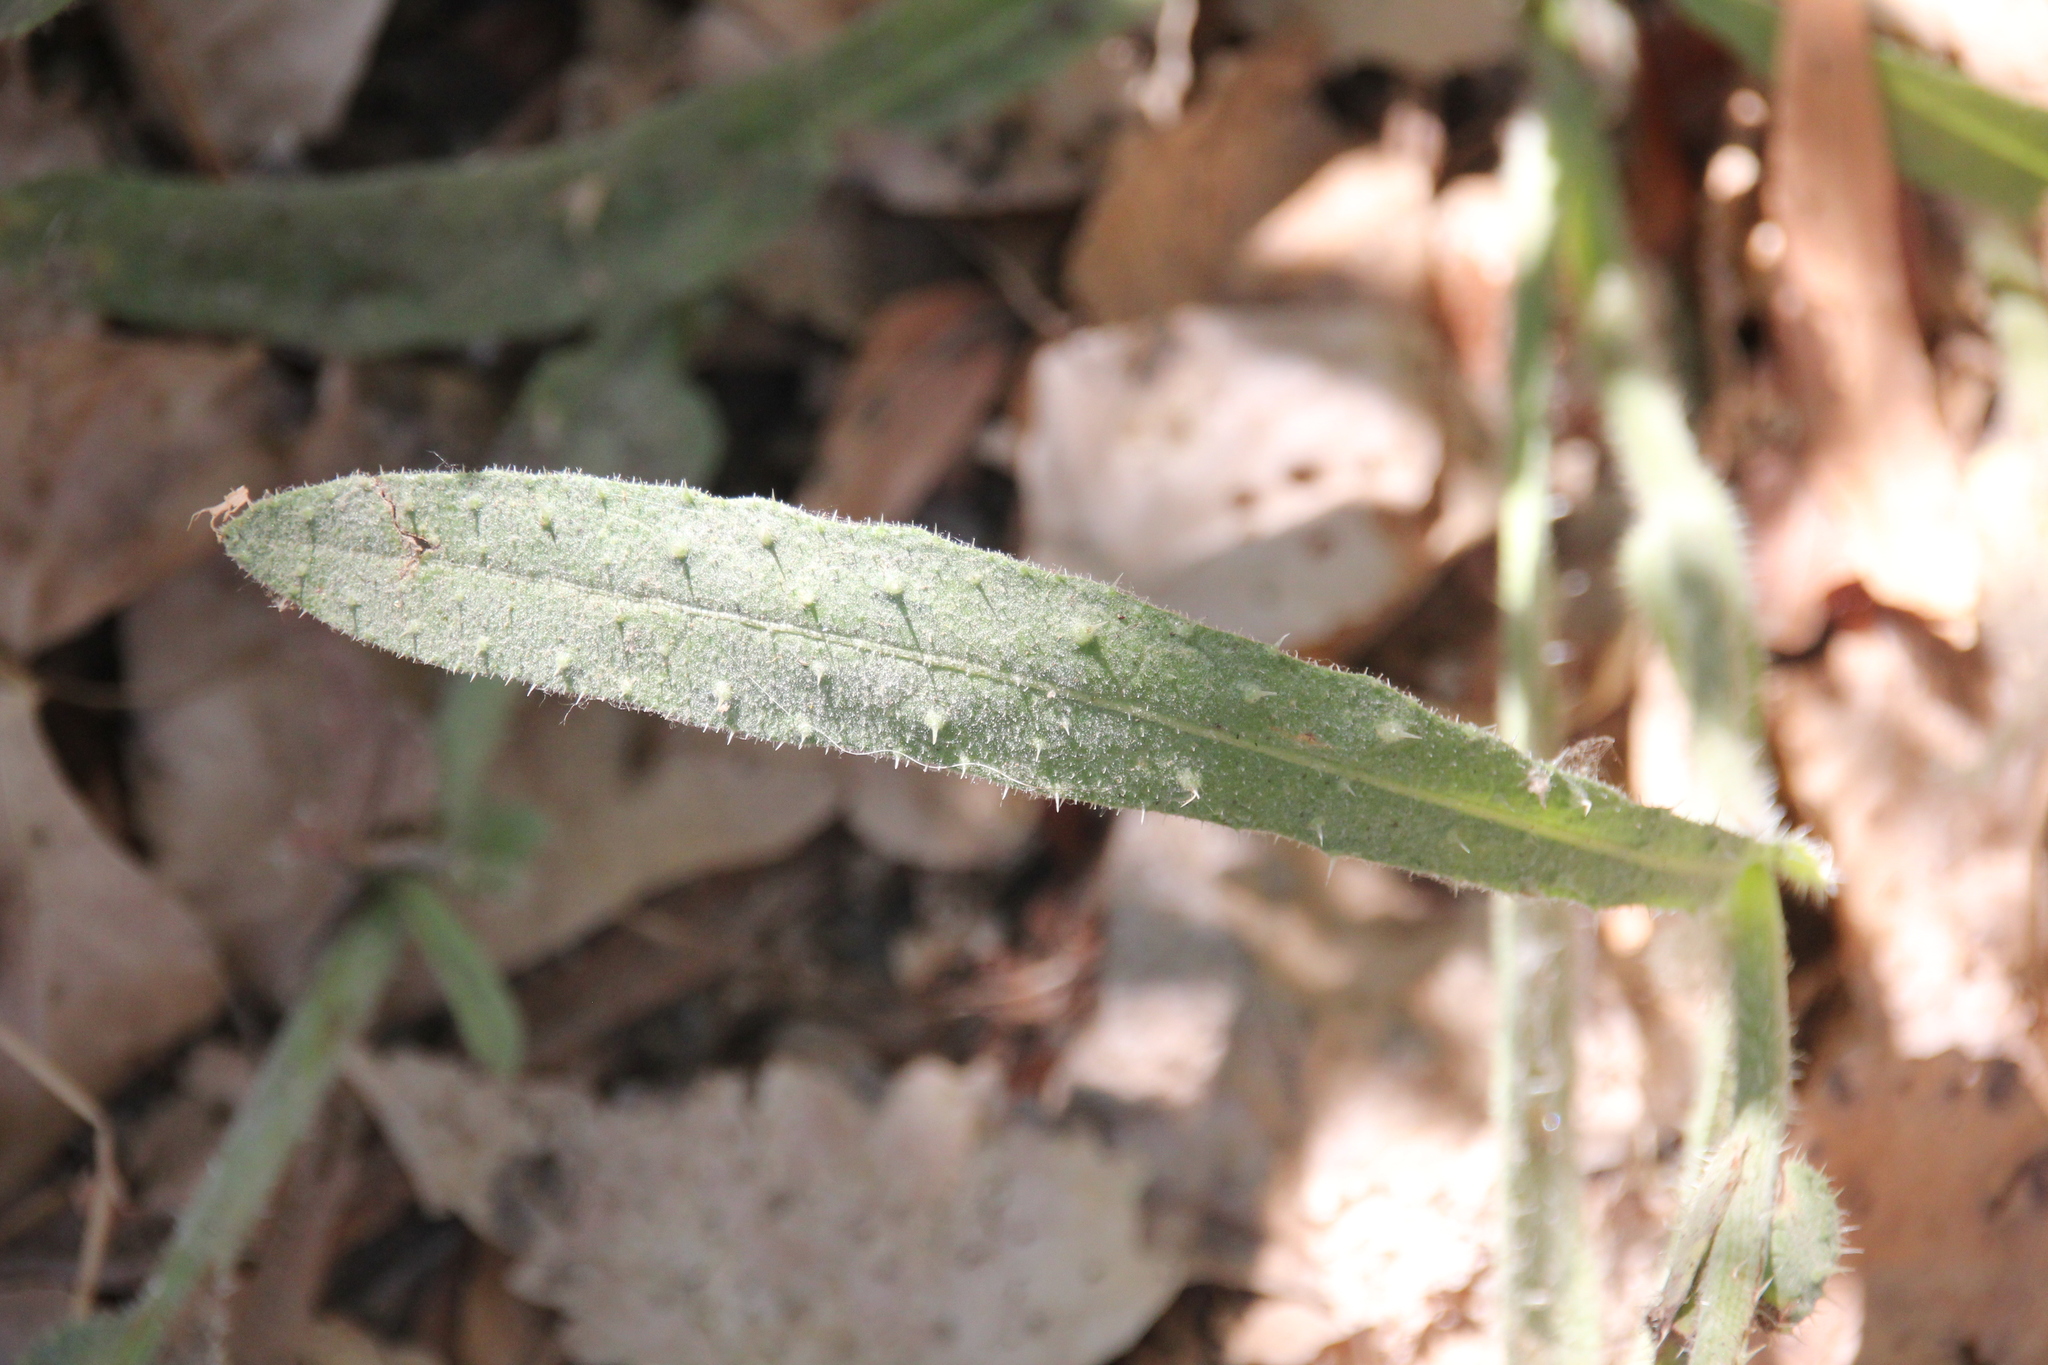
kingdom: Plantae
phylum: Tracheophyta
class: Magnoliopsida
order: Asterales
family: Asteraceae
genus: Helminthotheca
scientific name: Helminthotheca echioides
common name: Ox-tongue
